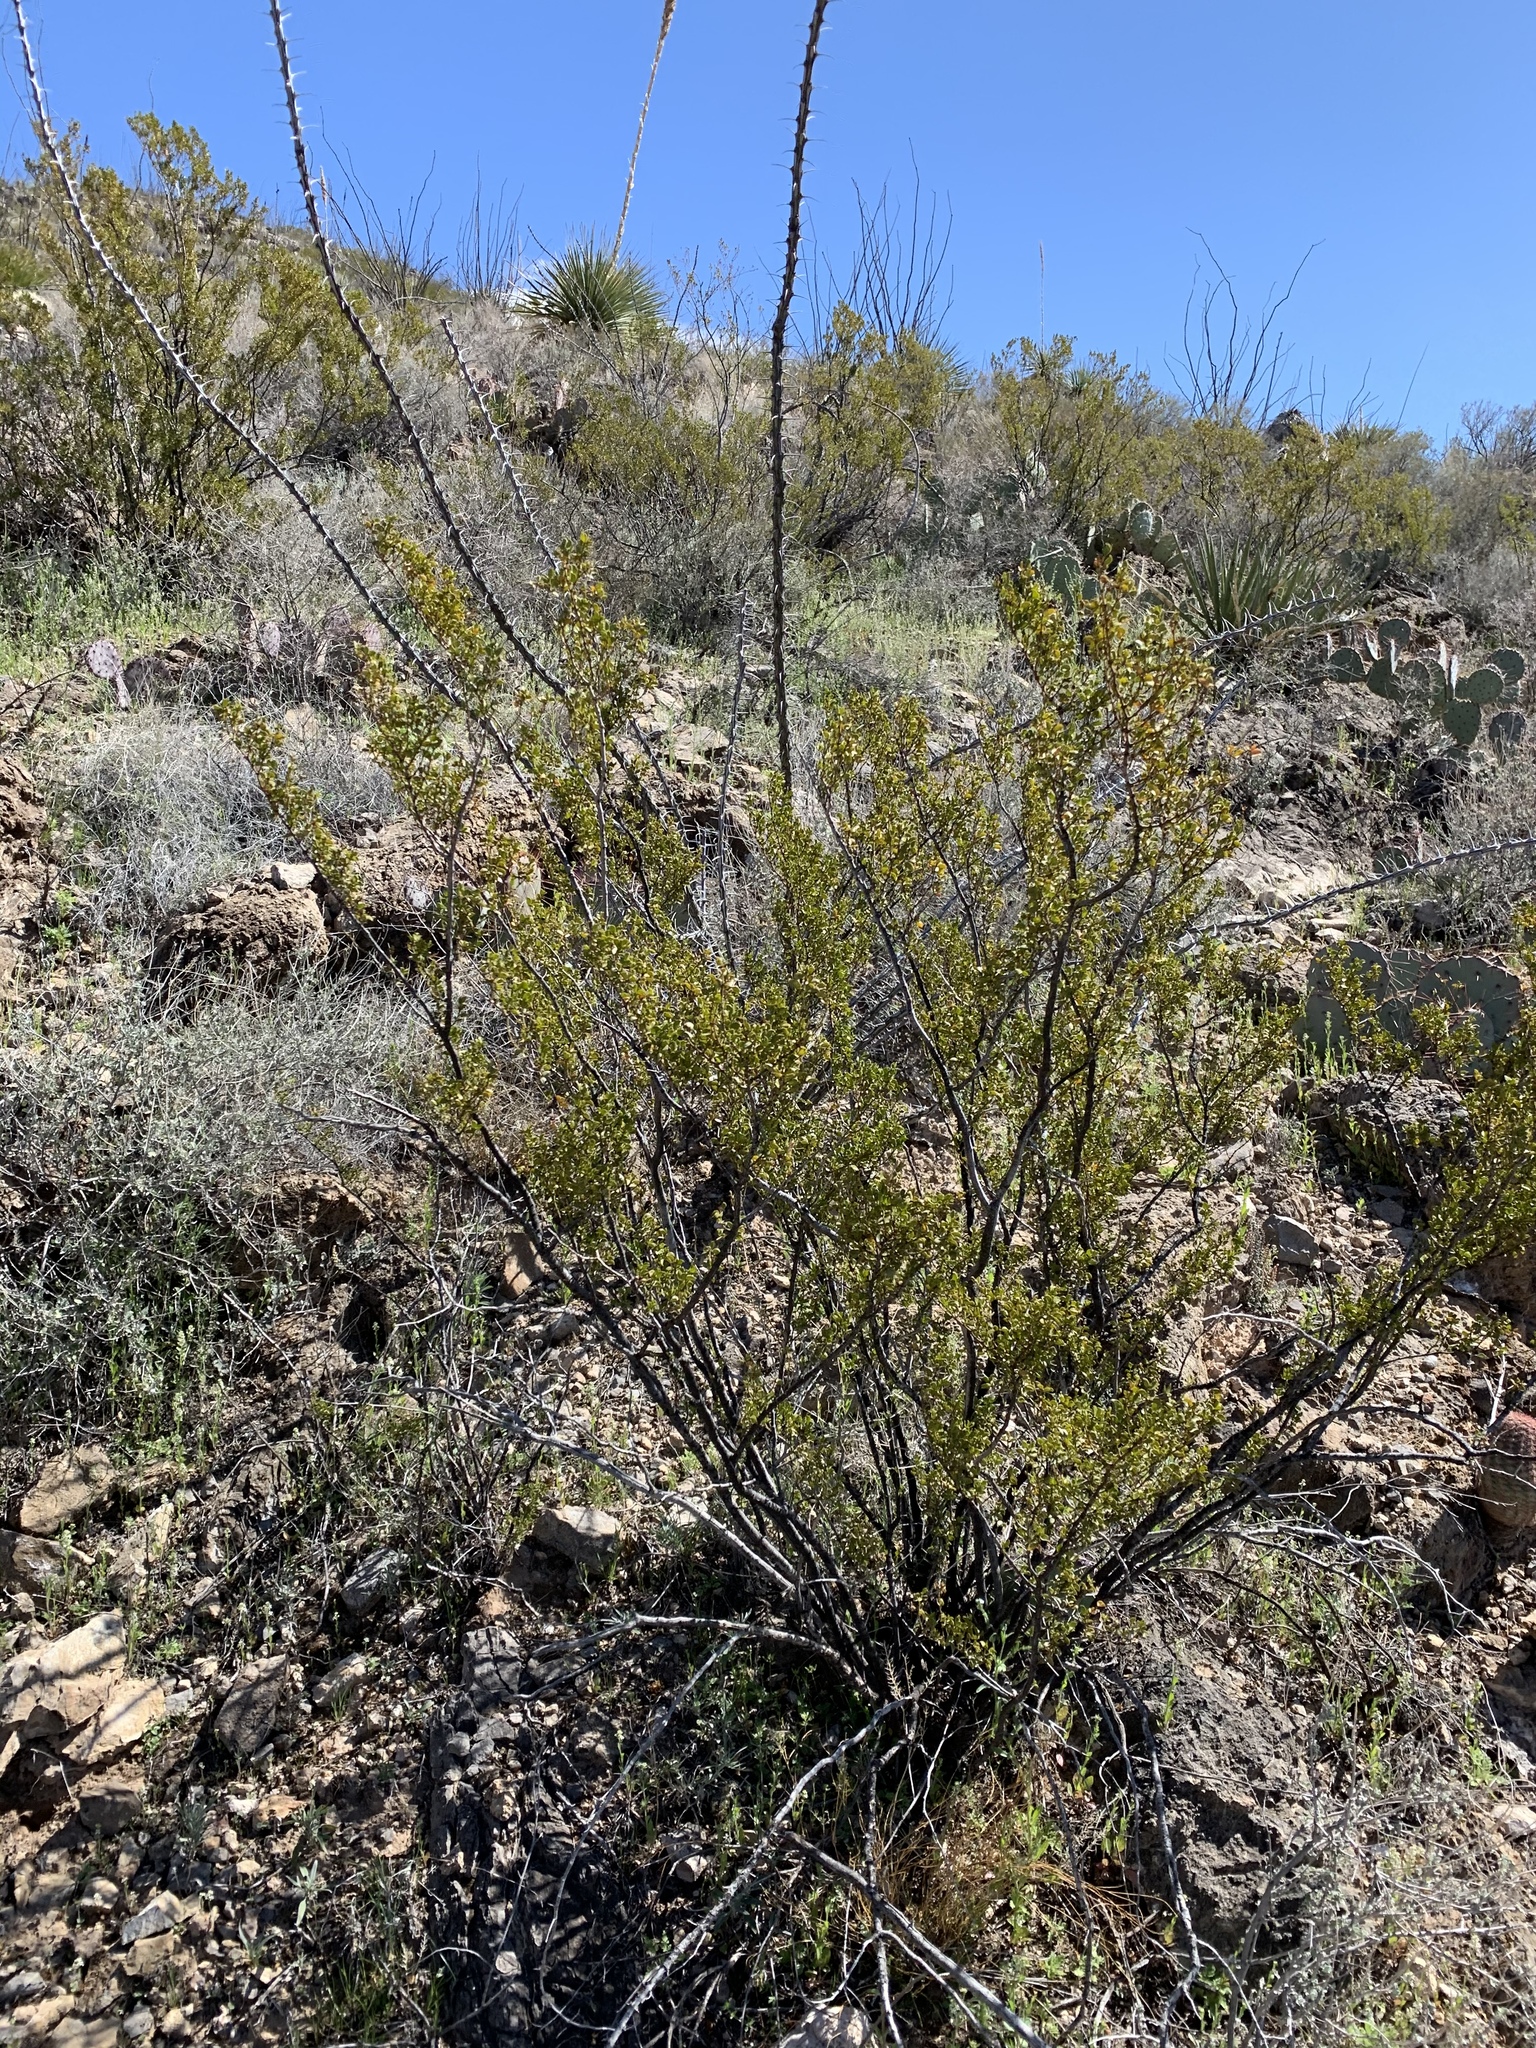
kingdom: Plantae
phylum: Tracheophyta
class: Magnoliopsida
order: Zygophyllales
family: Zygophyllaceae
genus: Larrea
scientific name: Larrea tridentata
